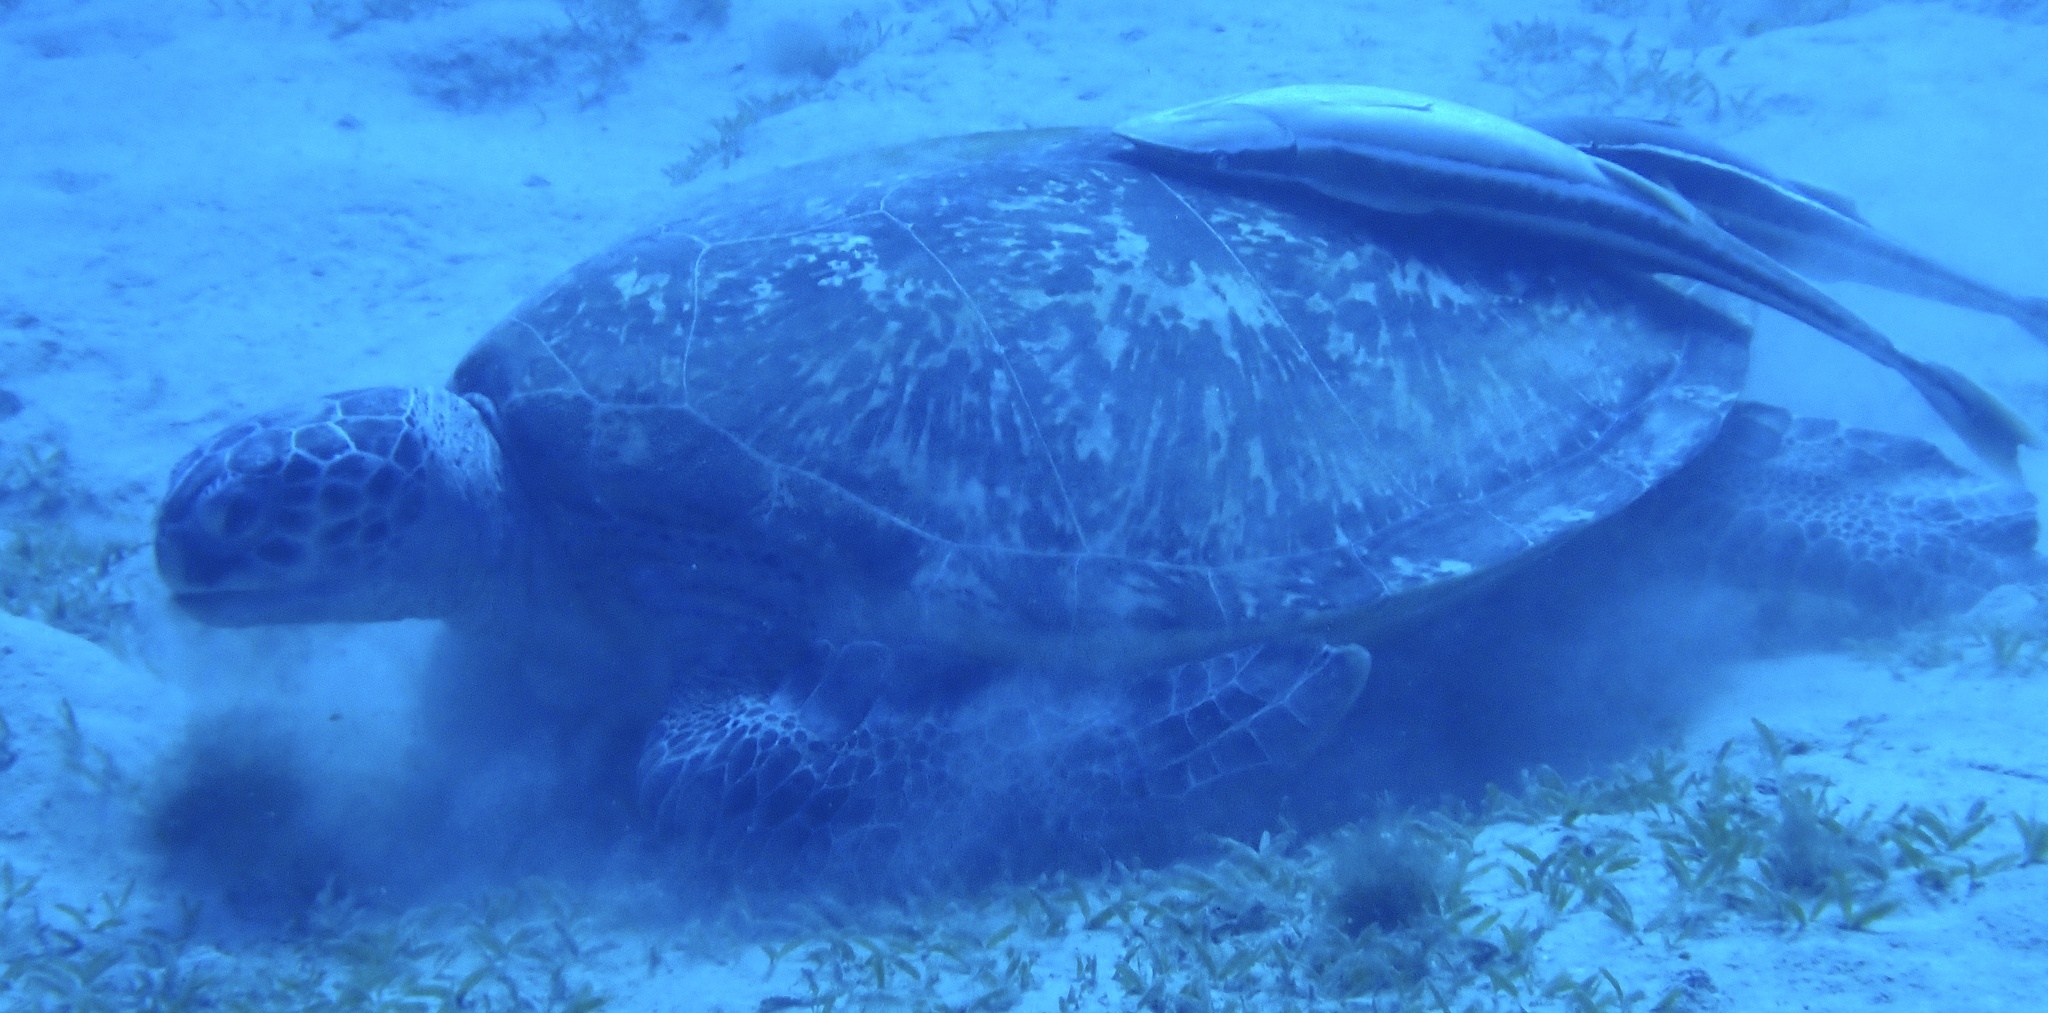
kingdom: Animalia
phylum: Chordata
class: Testudines
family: Cheloniidae
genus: Chelonia
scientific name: Chelonia mydas
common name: Green turtle
